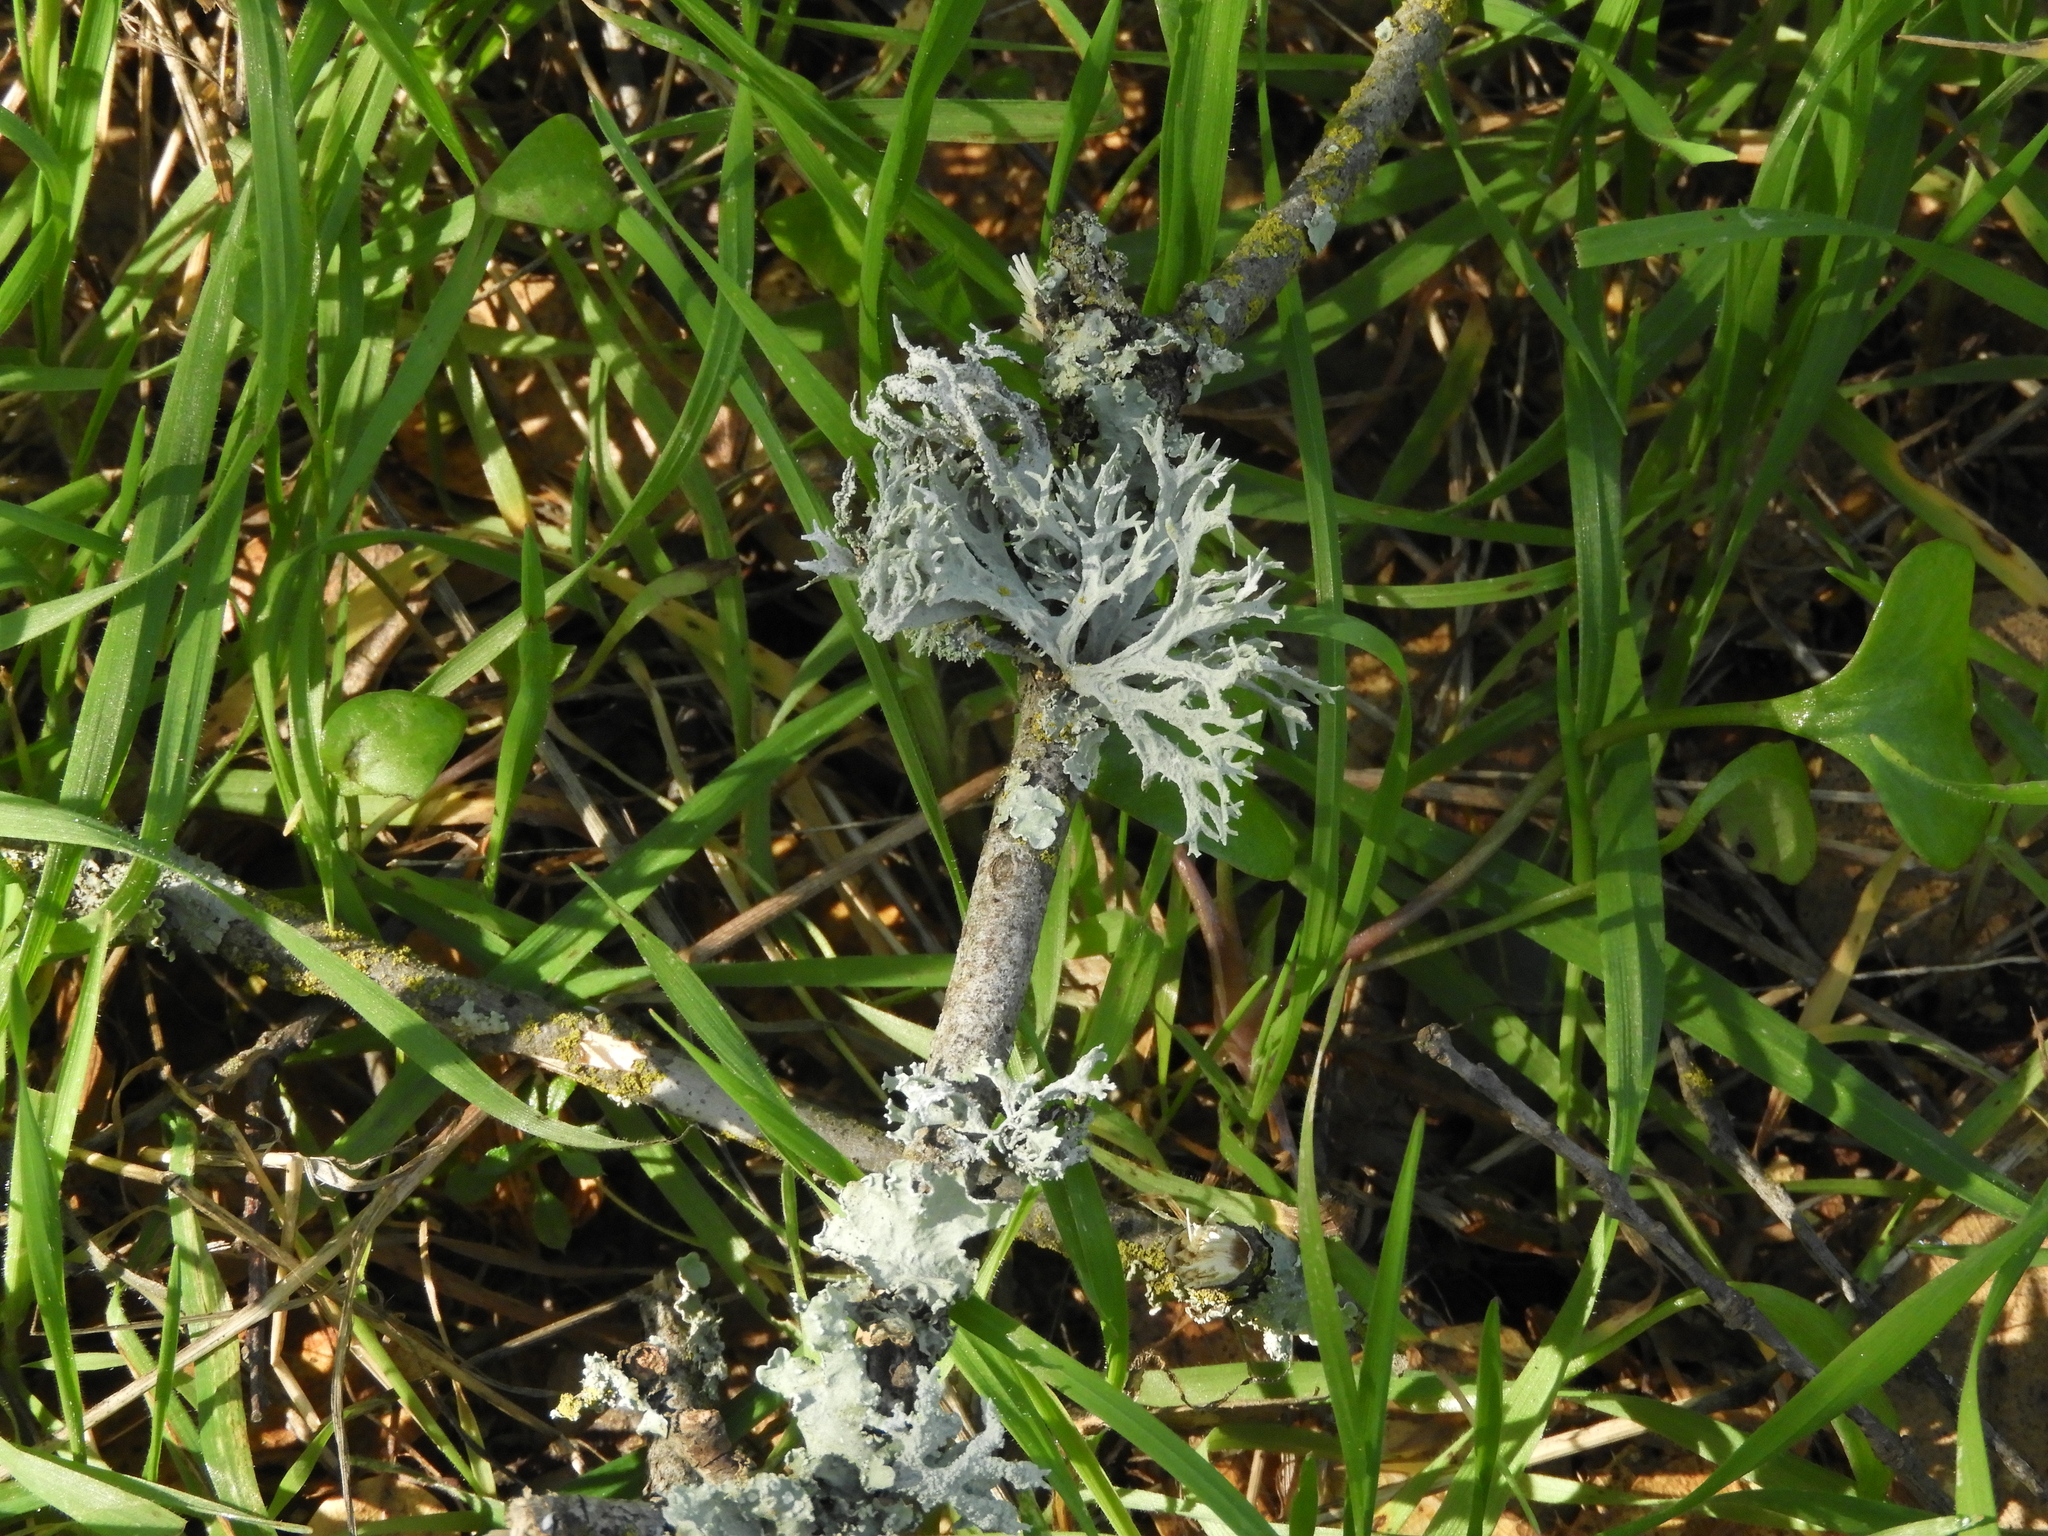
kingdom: Fungi
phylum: Ascomycota
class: Lecanoromycetes
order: Lecanorales
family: Parmeliaceae
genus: Evernia
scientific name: Evernia prunastri
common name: Oak moss
